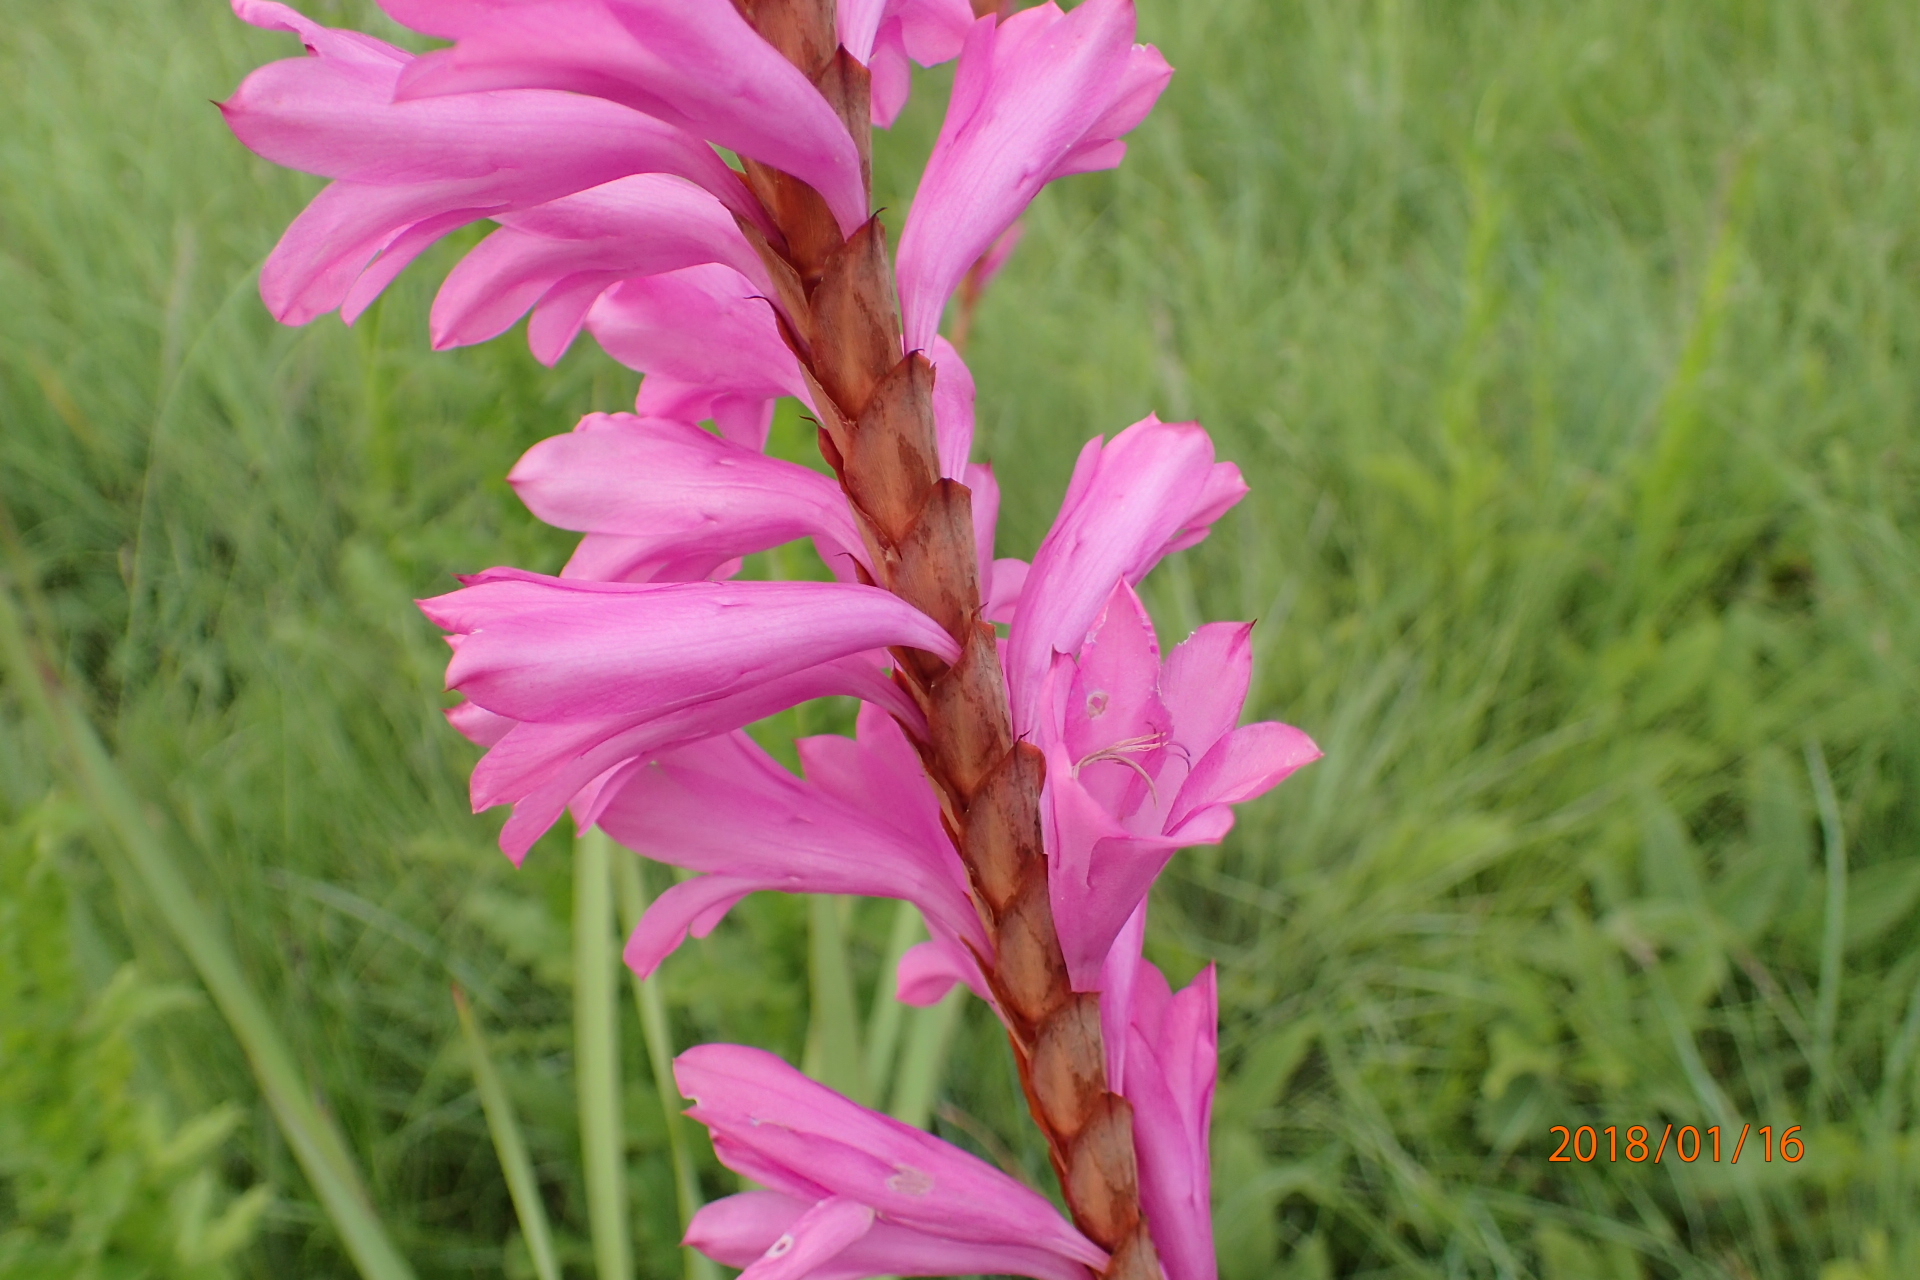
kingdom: Plantae
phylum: Tracheophyta
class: Liliopsida
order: Asparagales
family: Iridaceae
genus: Watsonia
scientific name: Watsonia densiflora
